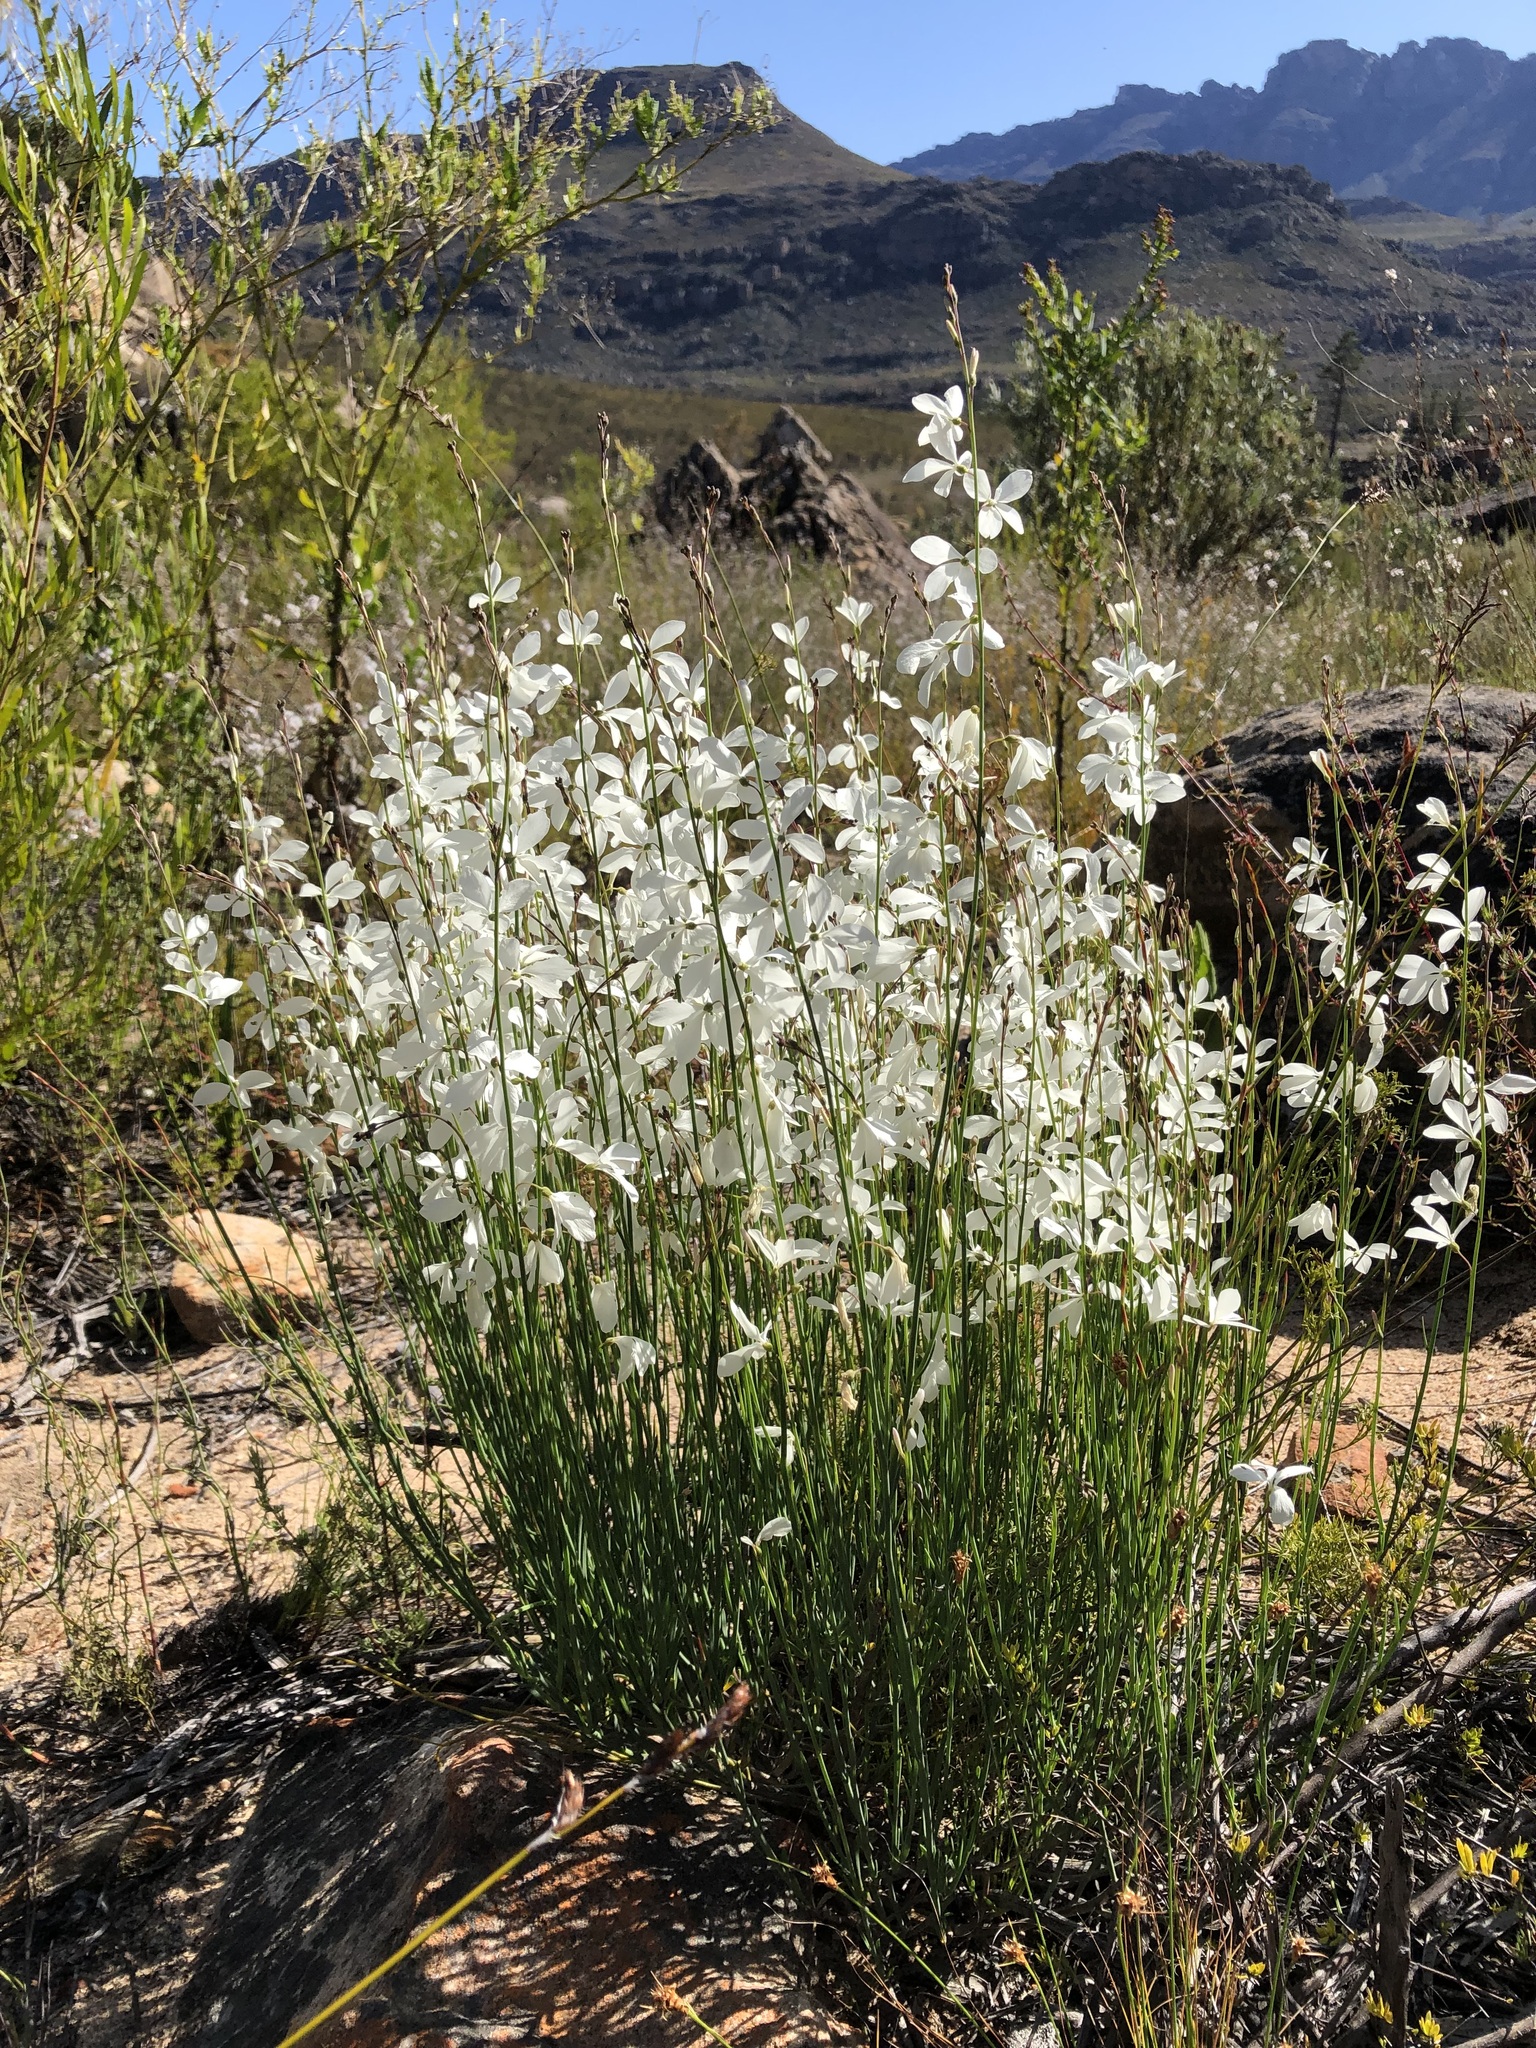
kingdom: Plantae
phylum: Tracheophyta
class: Magnoliopsida
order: Brassicales
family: Brassicaceae
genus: Heliophila
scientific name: Heliophila juncea
